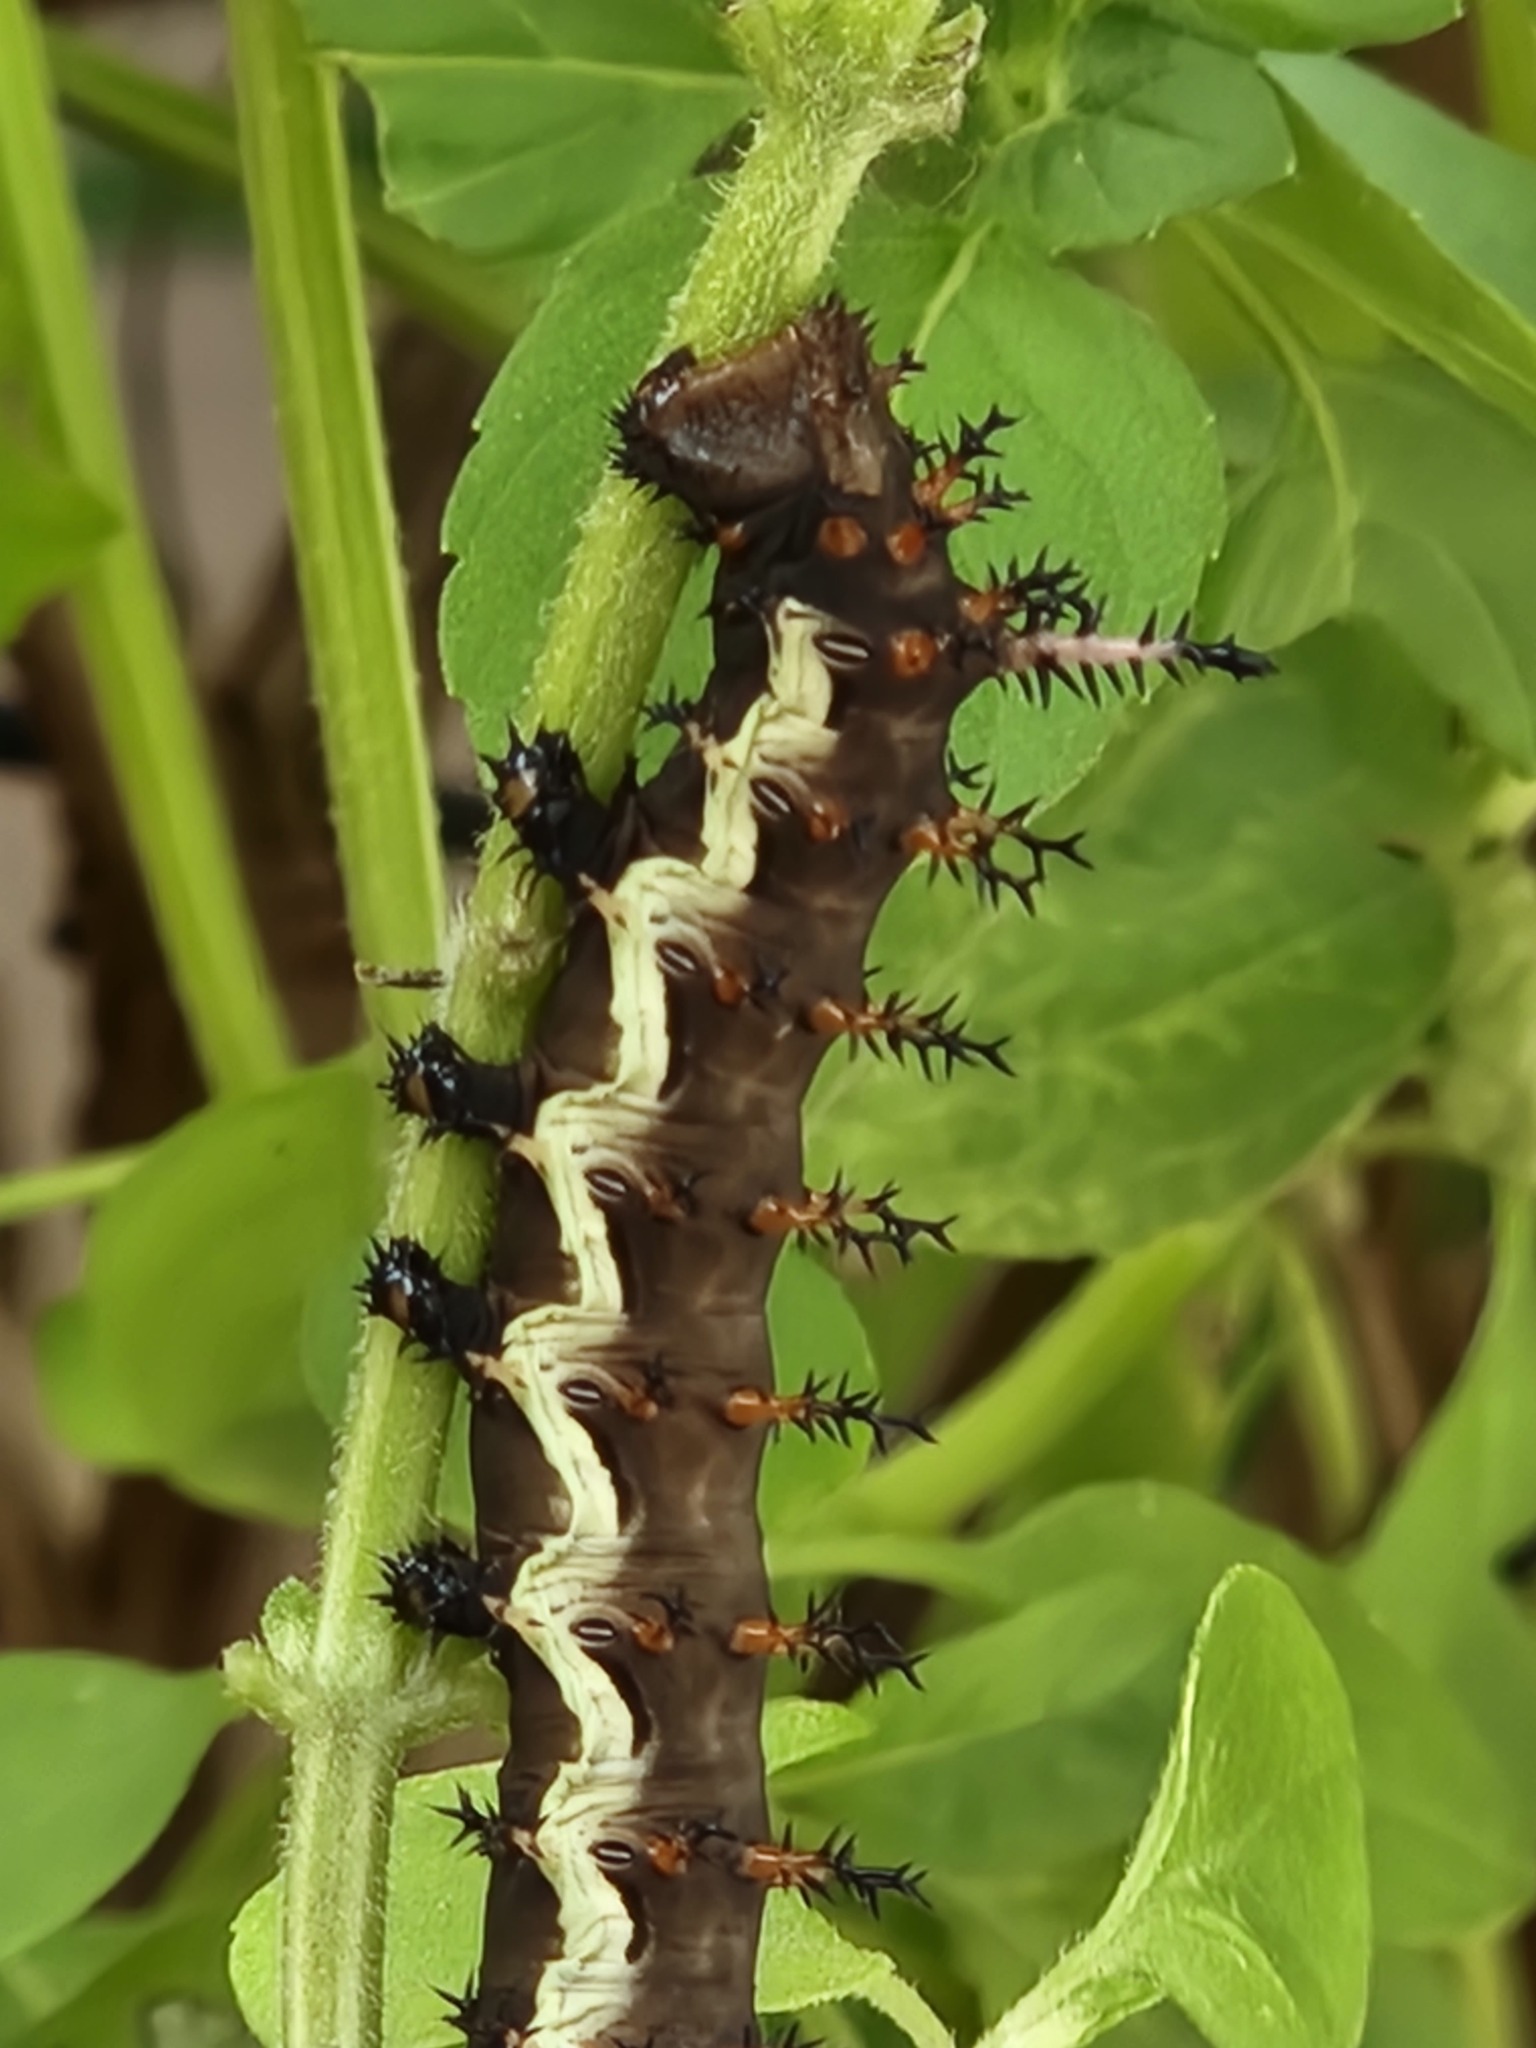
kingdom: Animalia
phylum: Arthropoda
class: Insecta
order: Lepidoptera
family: Saturniidae
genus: Citheronia
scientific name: Citheronia laocoon
